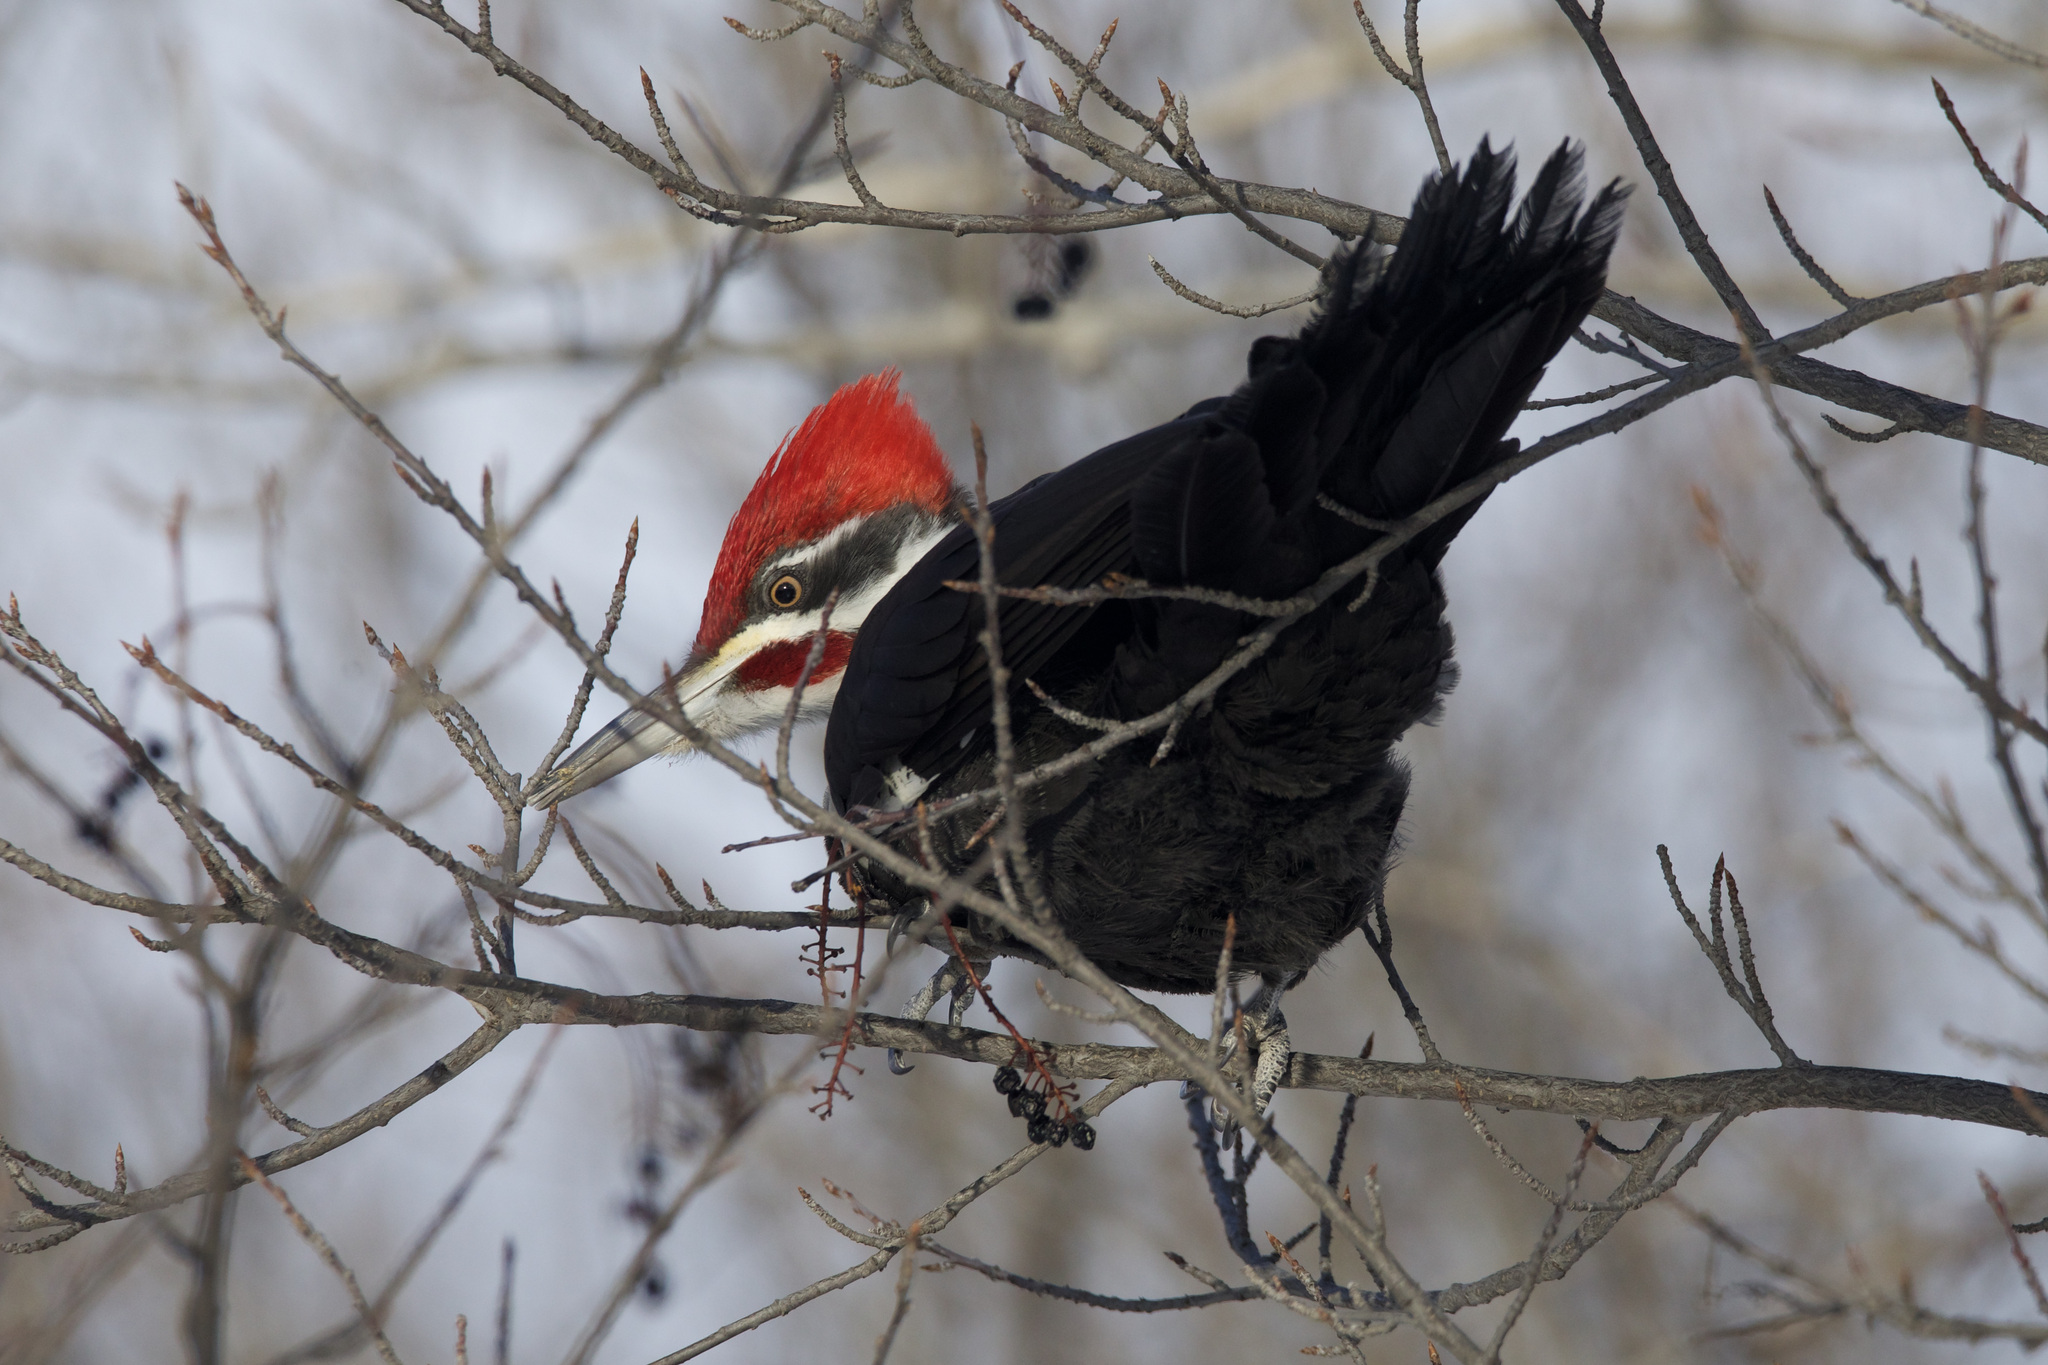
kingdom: Animalia
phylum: Chordata
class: Aves
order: Piciformes
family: Picidae
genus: Dryocopus
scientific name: Dryocopus pileatus
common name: Pileated woodpecker
